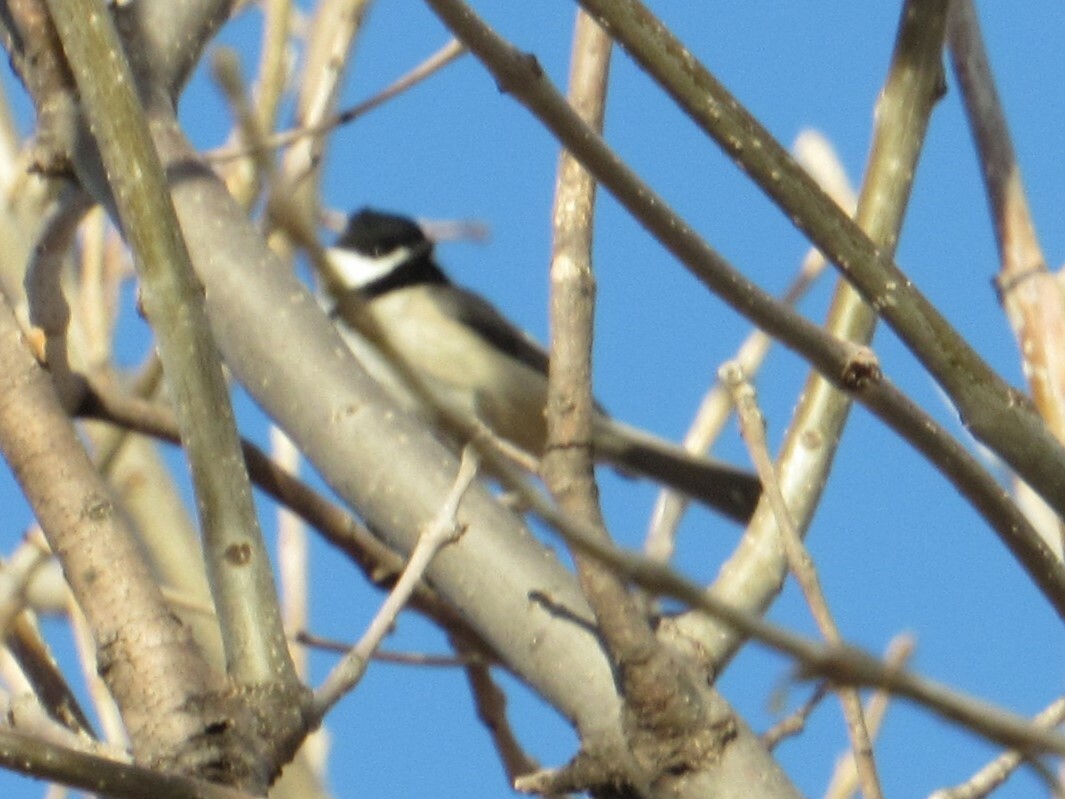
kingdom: Animalia
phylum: Chordata
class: Aves
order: Passeriformes
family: Paridae
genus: Poecile
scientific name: Poecile carolinensis
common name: Carolina chickadee
